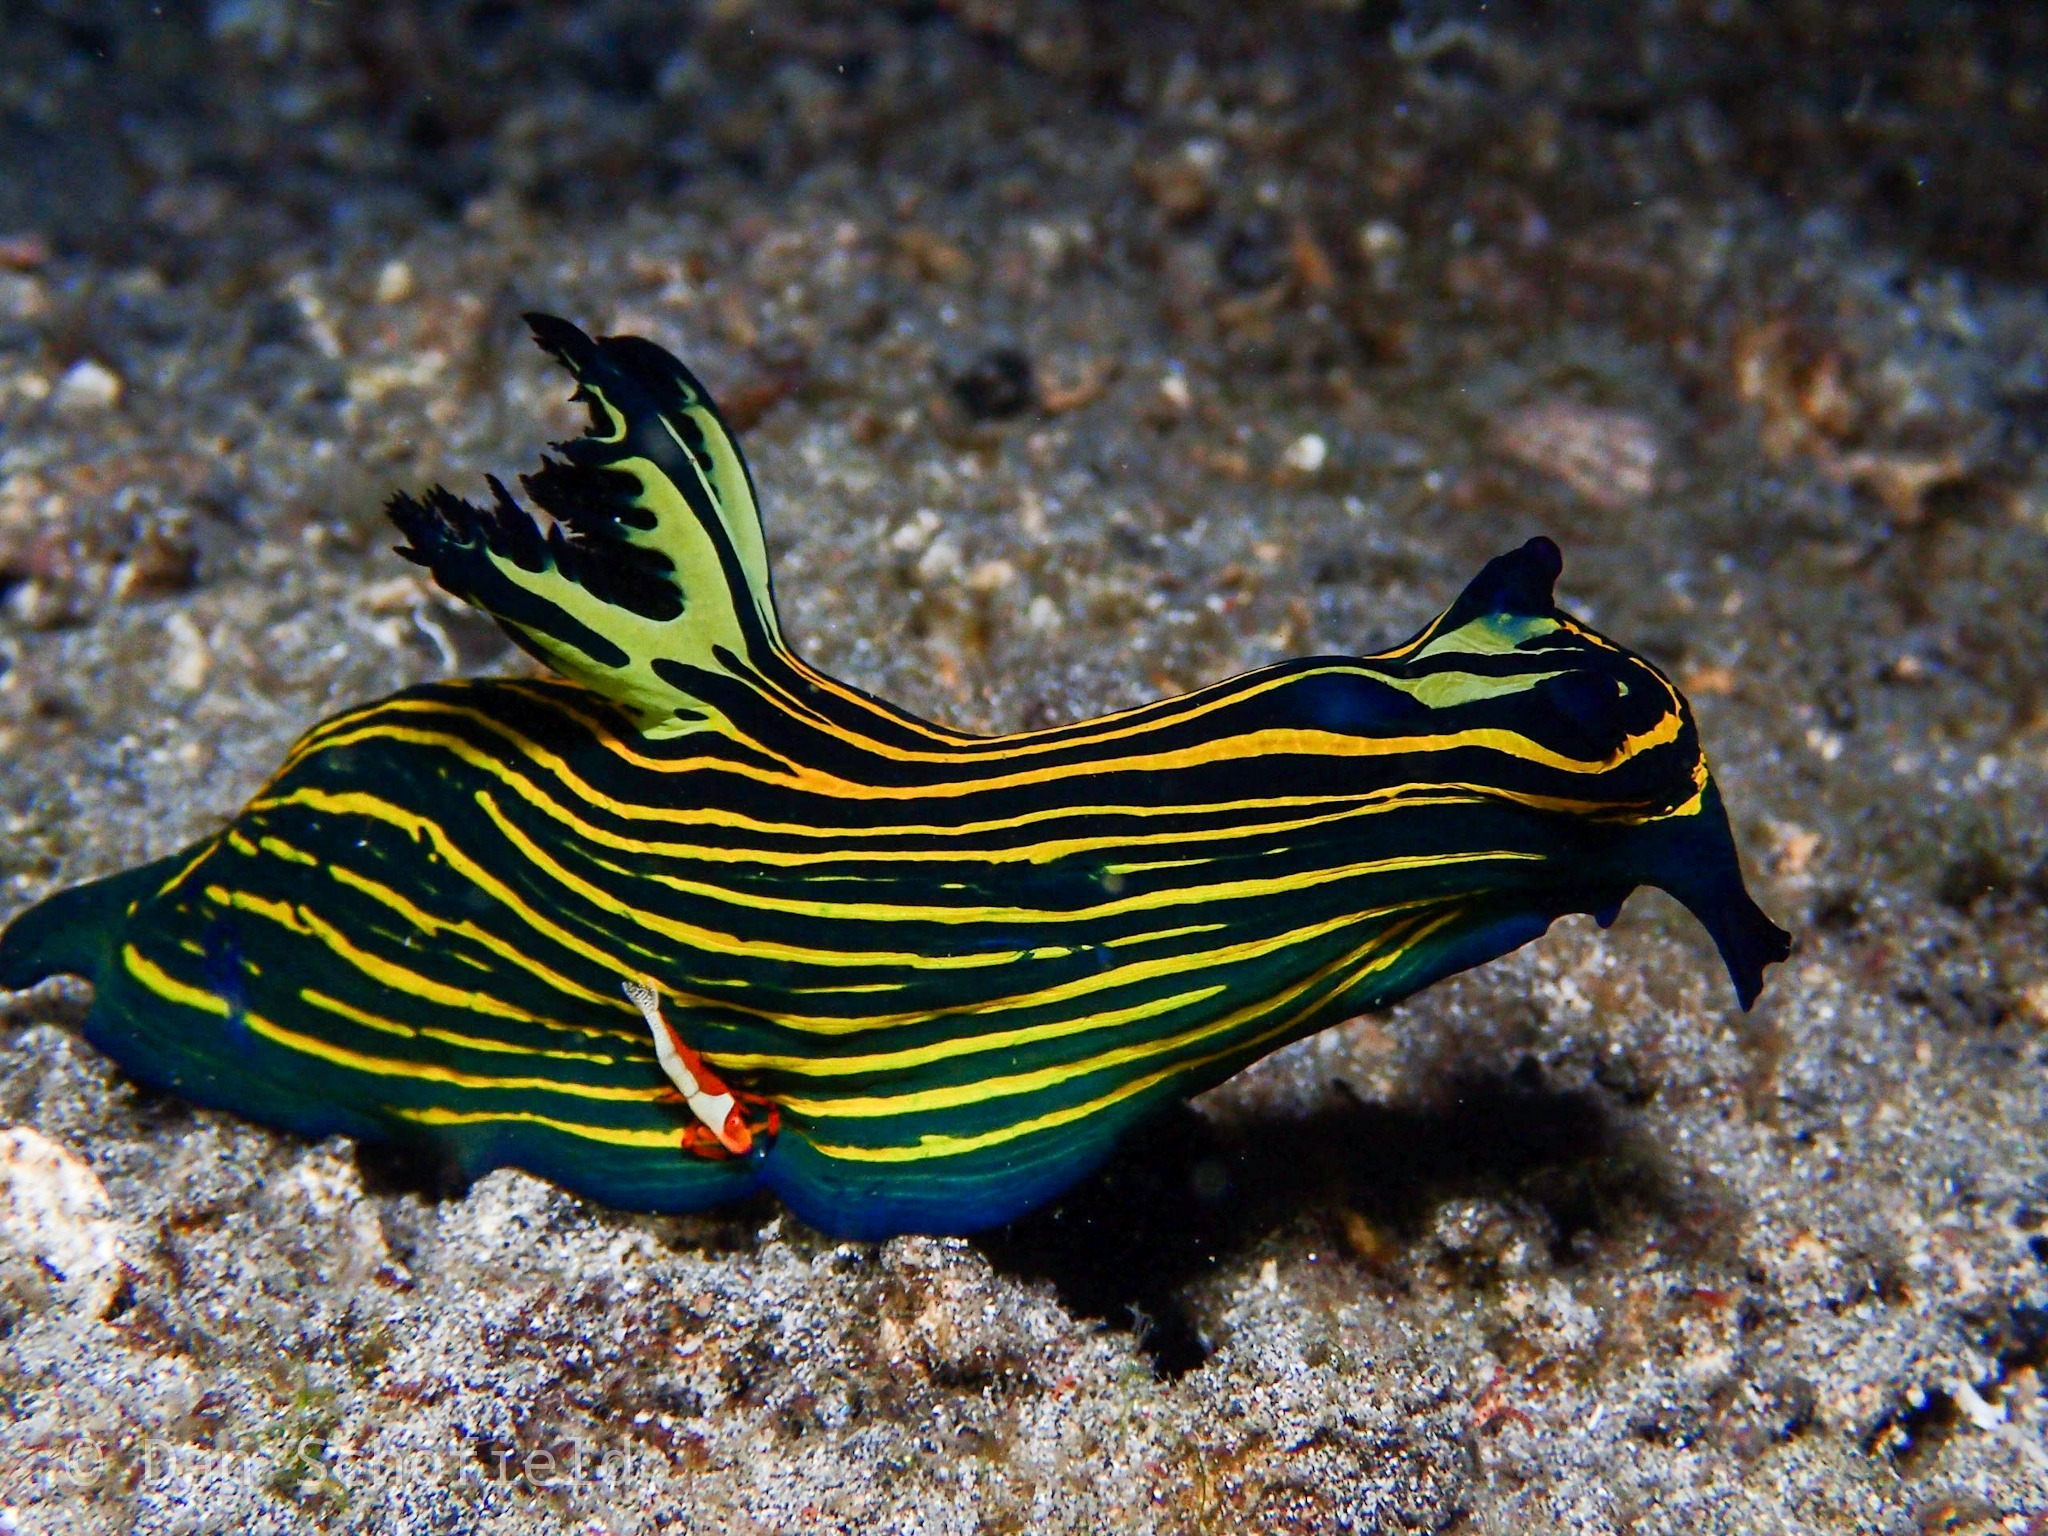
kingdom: Animalia
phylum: Mollusca
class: Gastropoda
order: Nudibranchia
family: Polyceridae
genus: Tyrannodoris
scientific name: Tyrannodoris luteolineata
